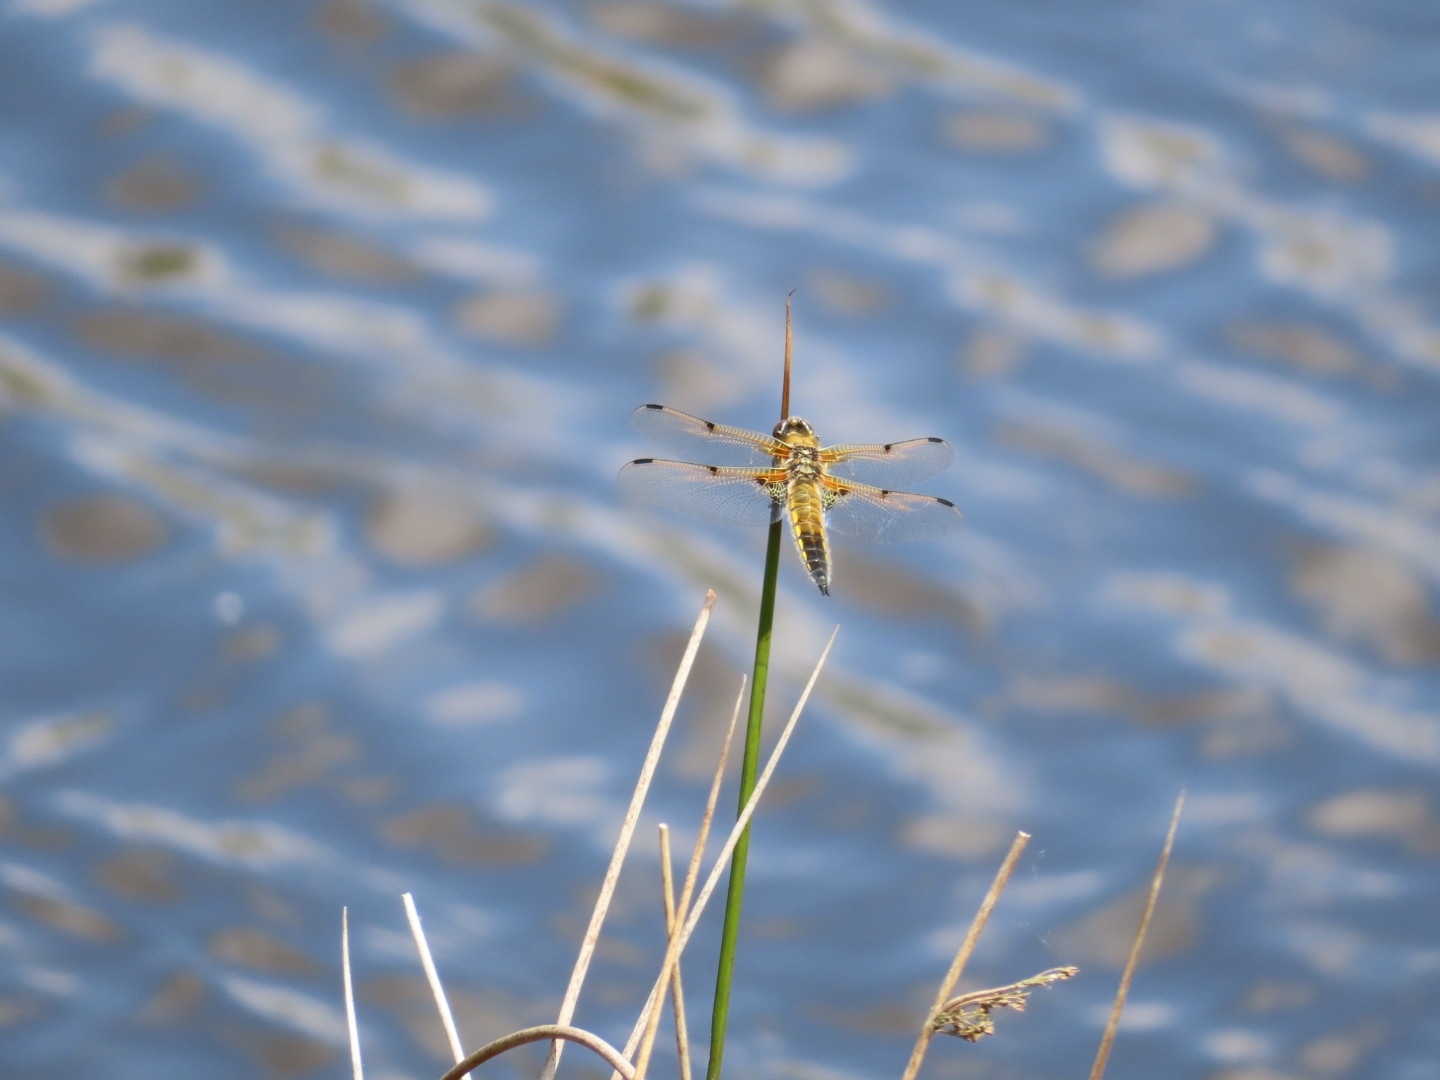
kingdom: Animalia
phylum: Arthropoda
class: Insecta
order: Odonata
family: Libellulidae
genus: Libellula
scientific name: Libellula quadrimaculata
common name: Four-spotted chaser
